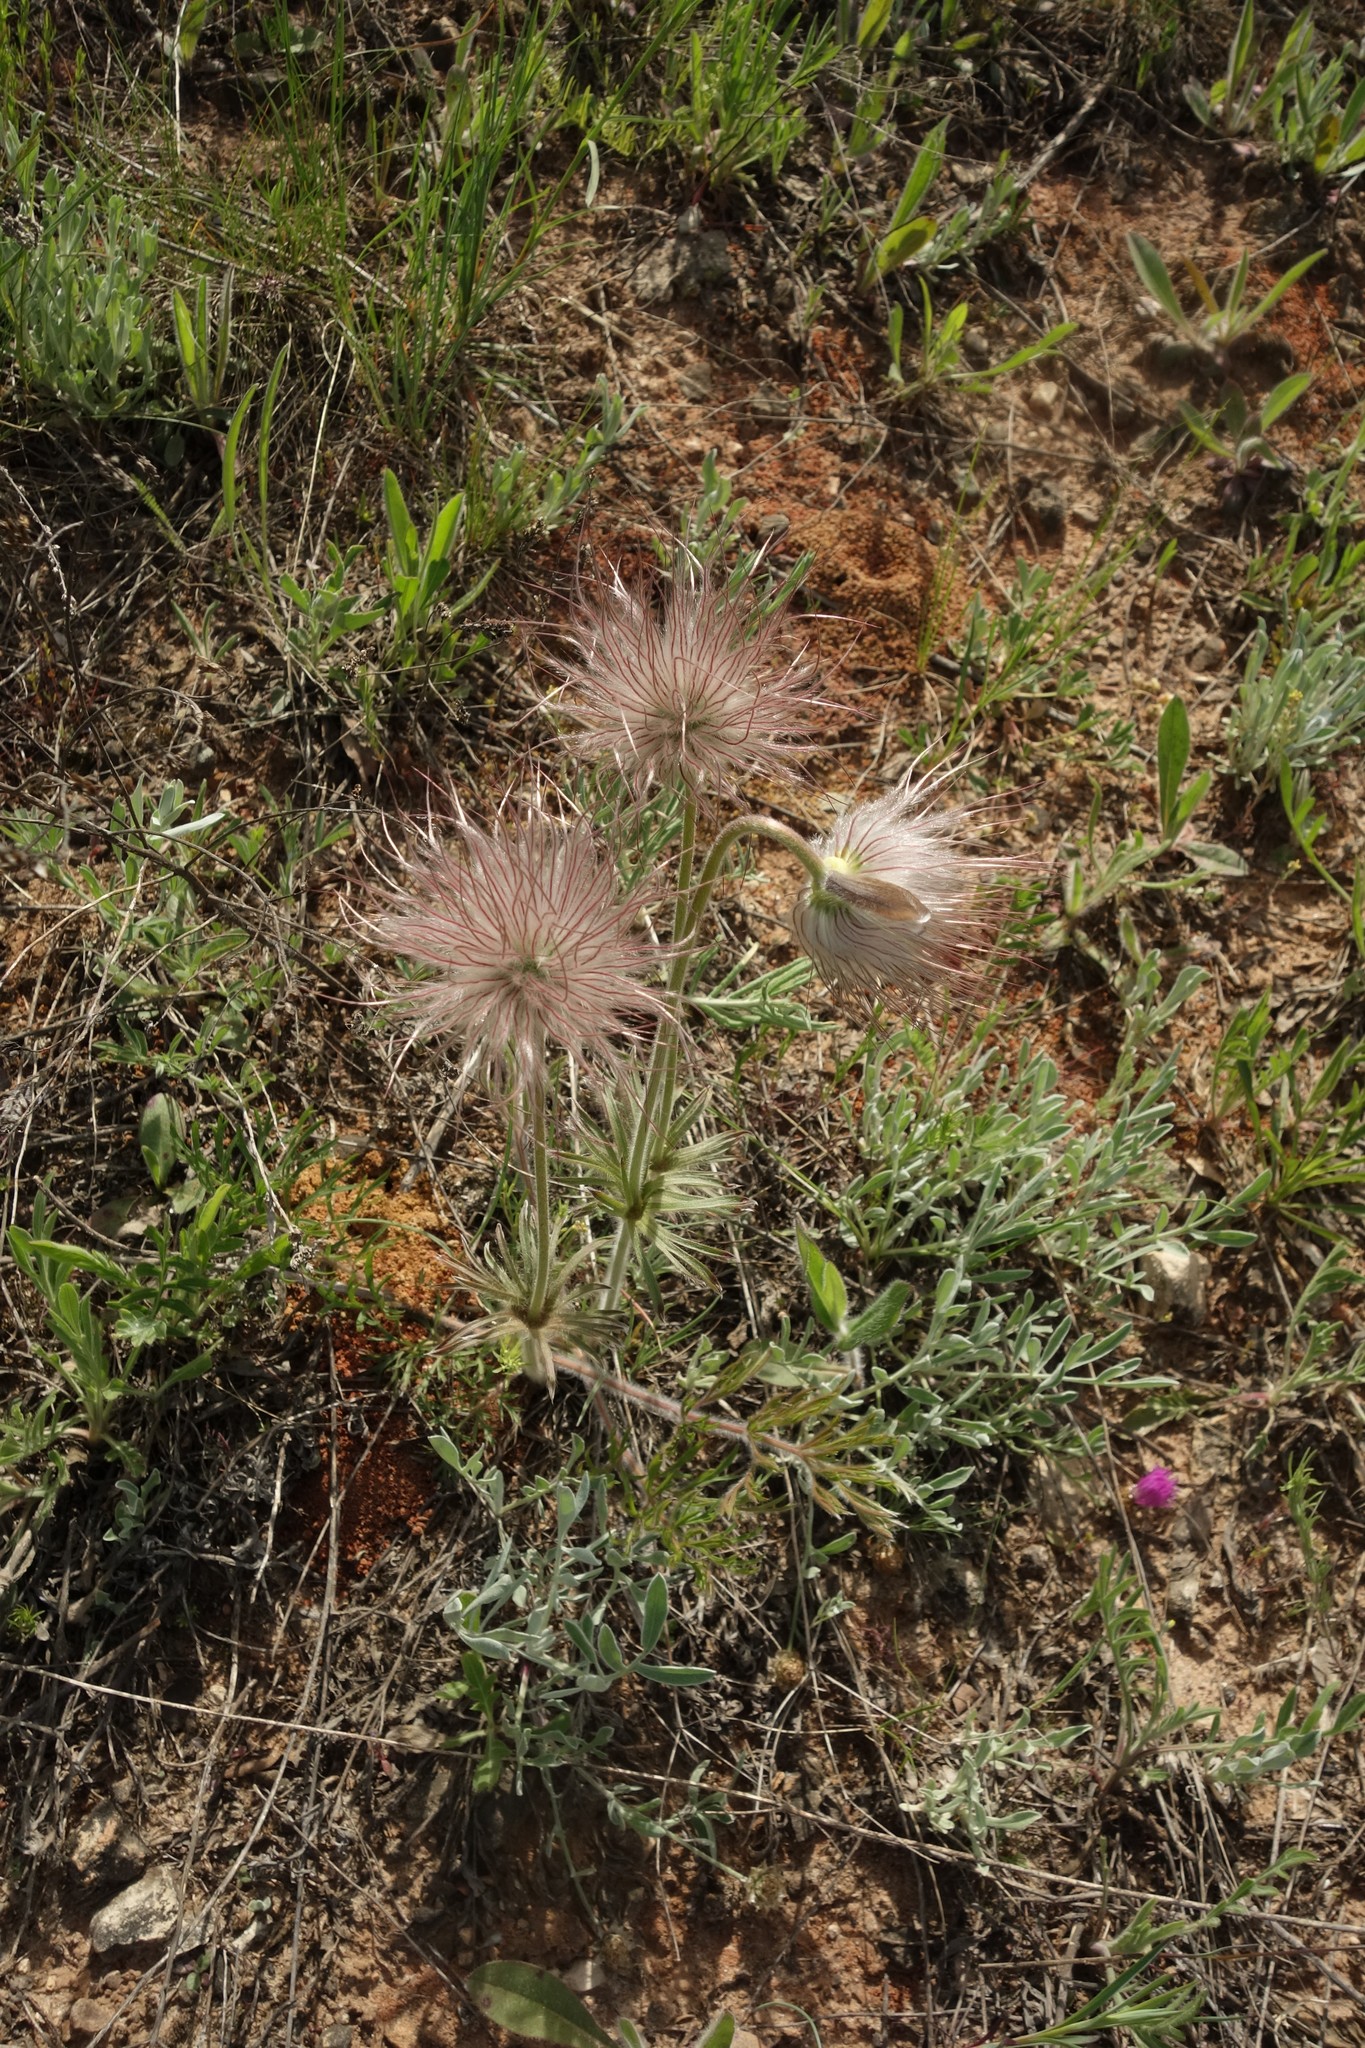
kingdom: Plantae
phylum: Tracheophyta
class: Magnoliopsida
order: Ranunculales
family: Ranunculaceae
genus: Pulsatilla
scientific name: Pulsatilla pratensis
